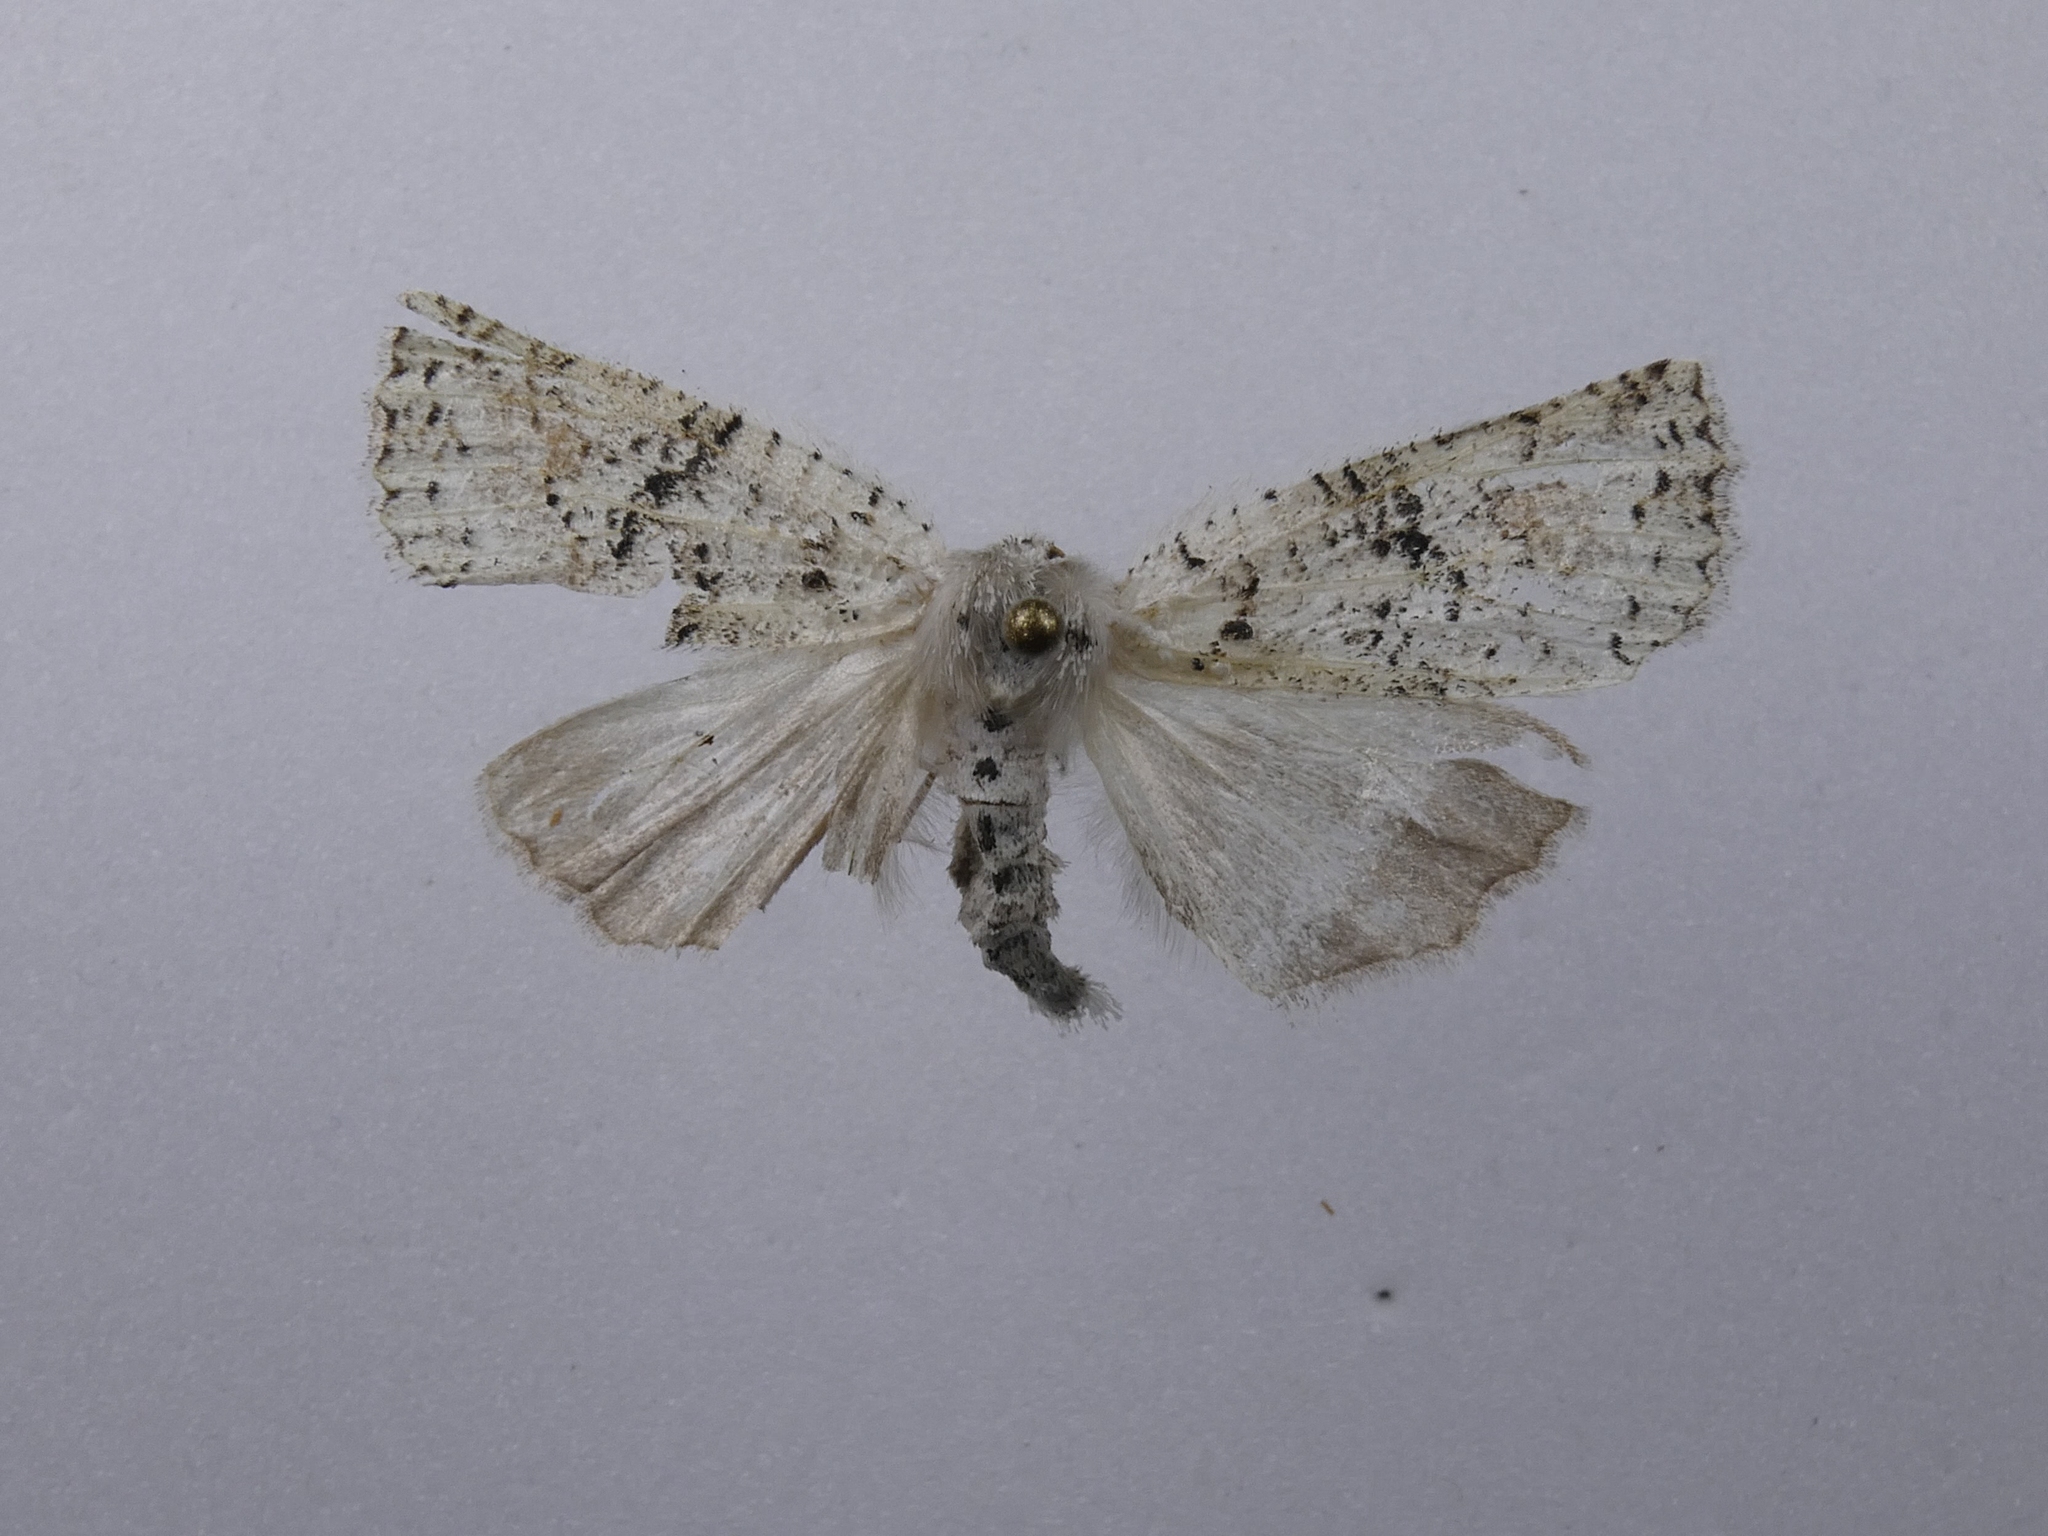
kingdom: Animalia
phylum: Arthropoda
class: Insecta
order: Lepidoptera
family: Geometridae
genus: Declana
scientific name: Declana floccosa
